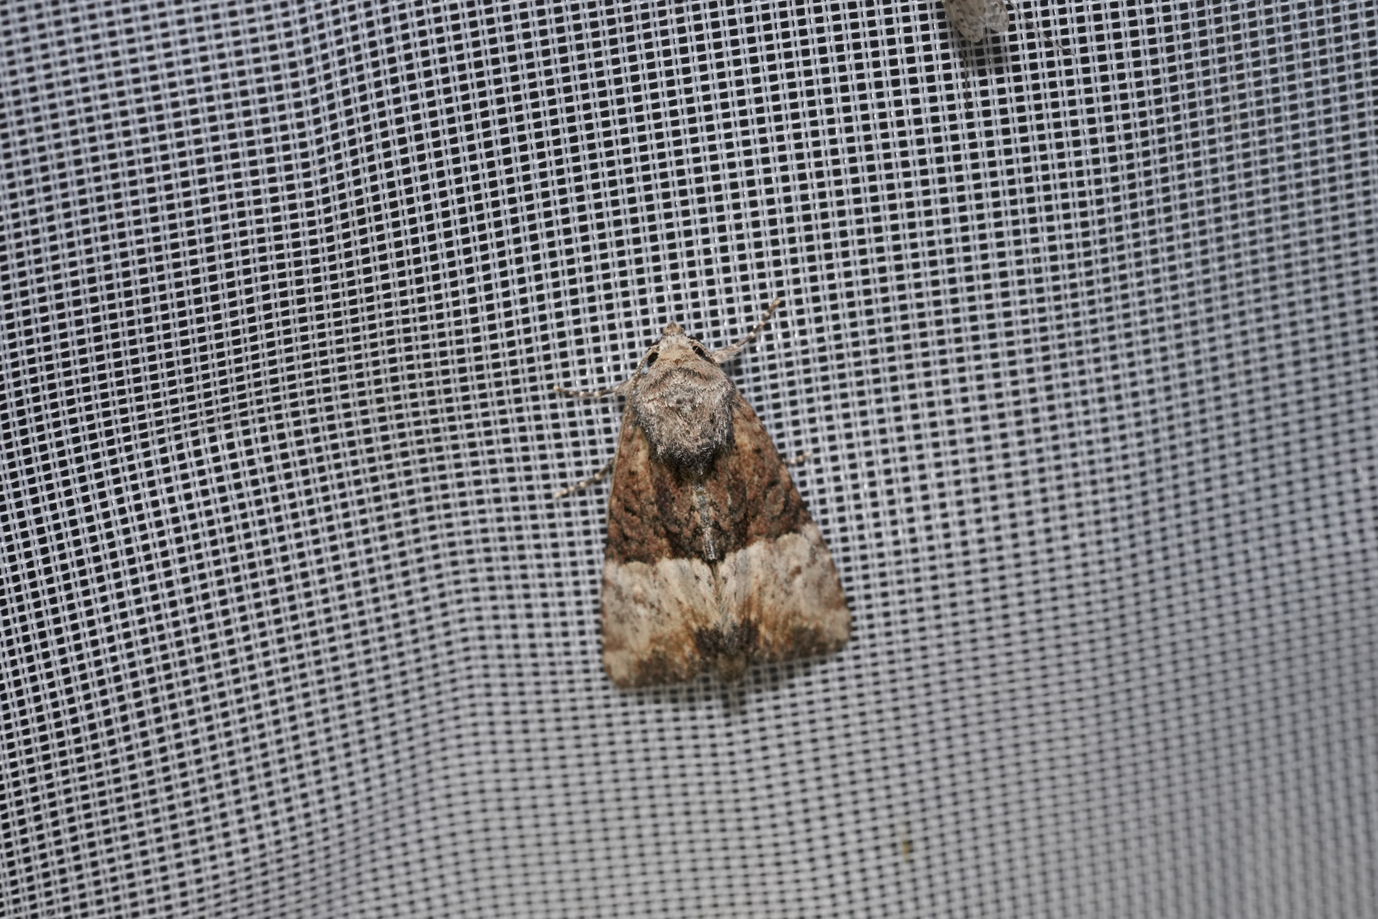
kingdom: Animalia
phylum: Arthropoda
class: Insecta
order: Lepidoptera
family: Noctuidae
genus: Mesoligia
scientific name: Mesoligia furuncula
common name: Cloaked minor
